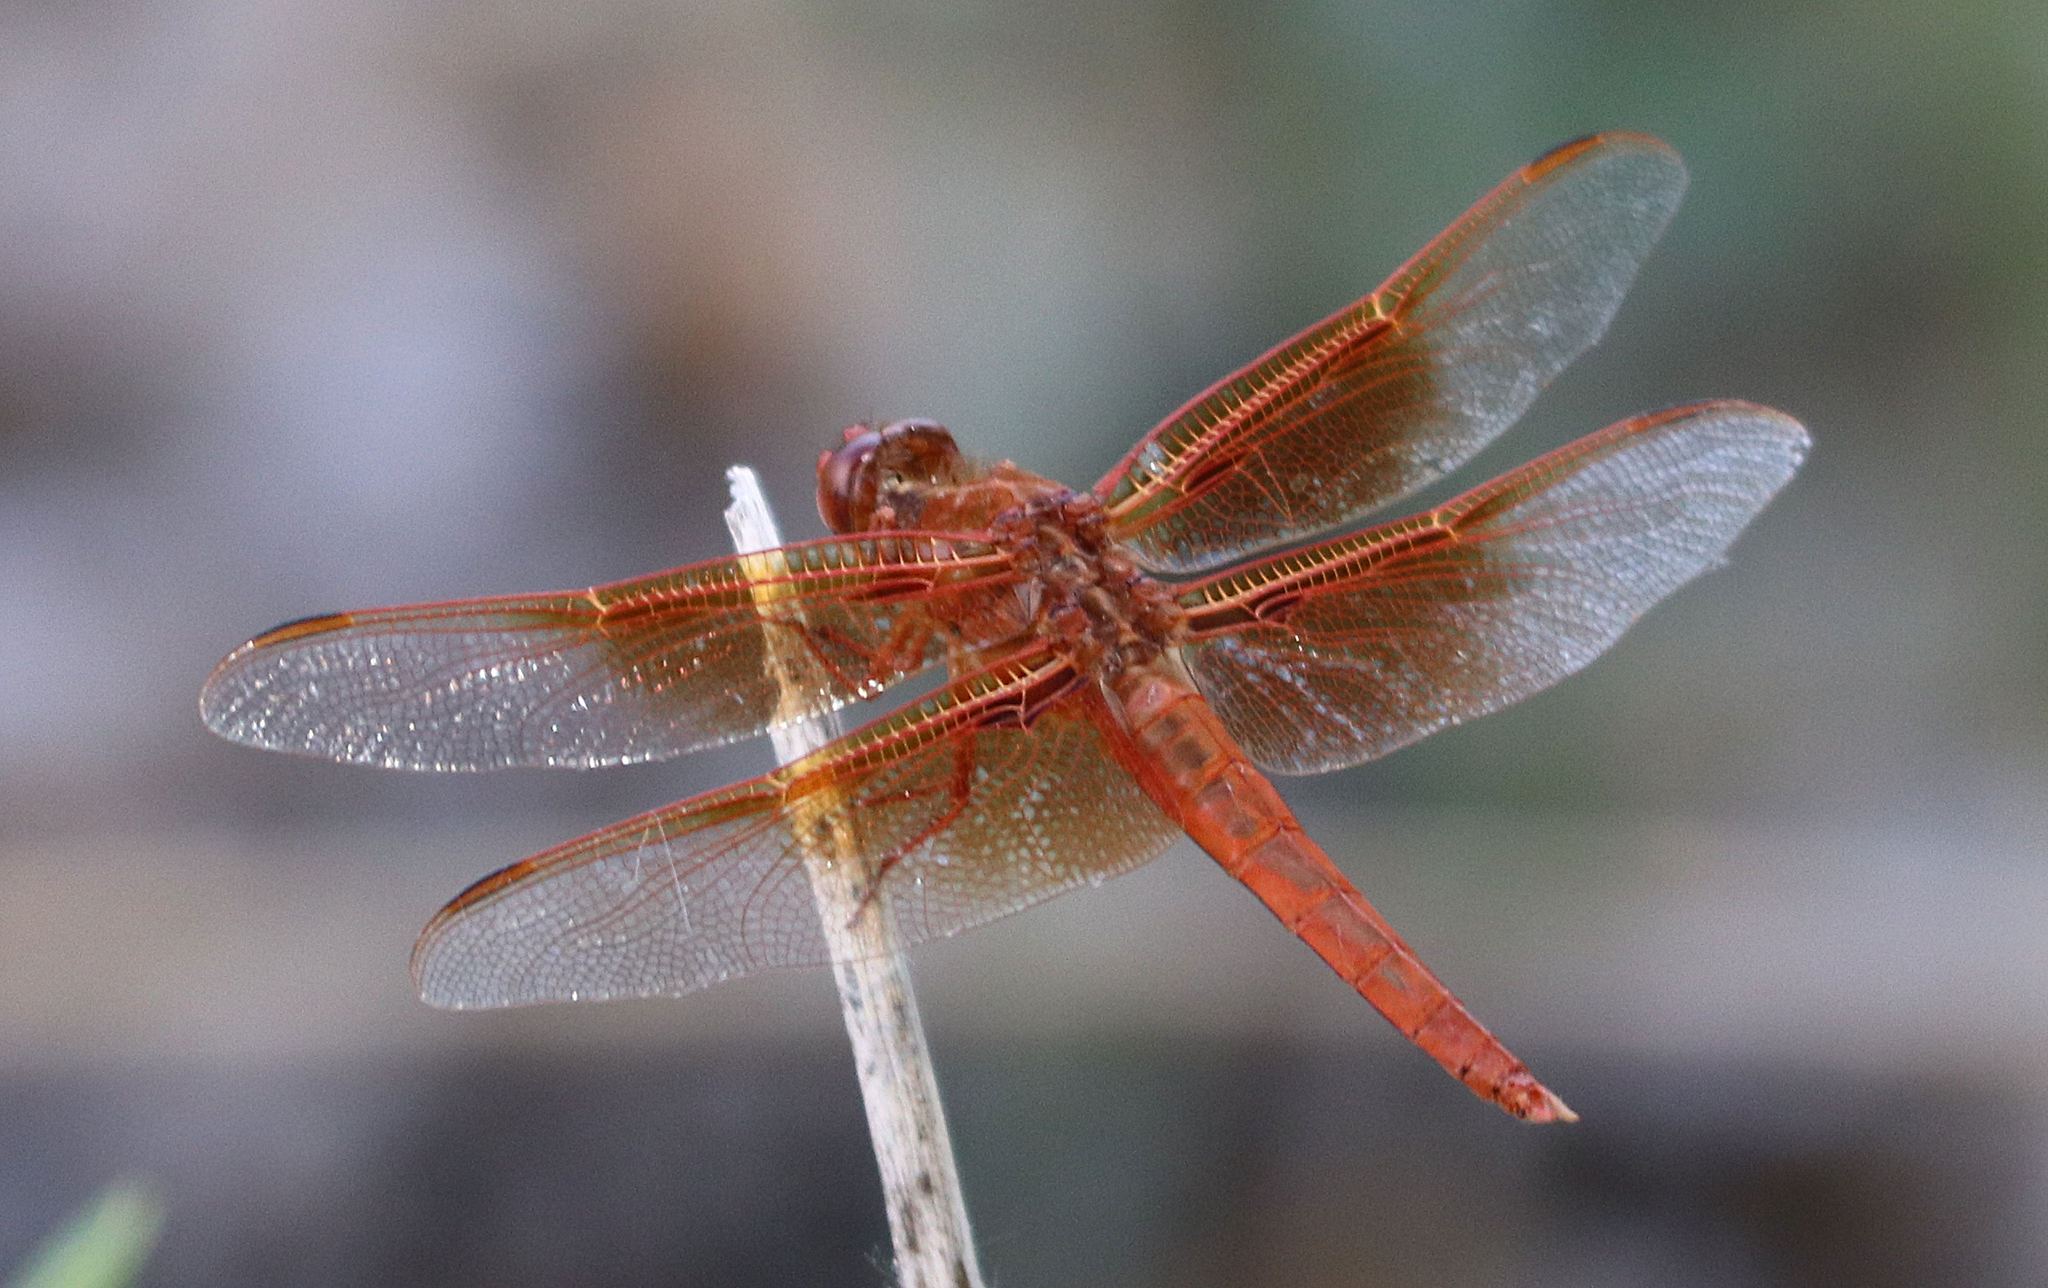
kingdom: Animalia
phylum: Arthropoda
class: Insecta
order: Odonata
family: Libellulidae
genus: Libellula
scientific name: Libellula saturata
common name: Flame skimmer
